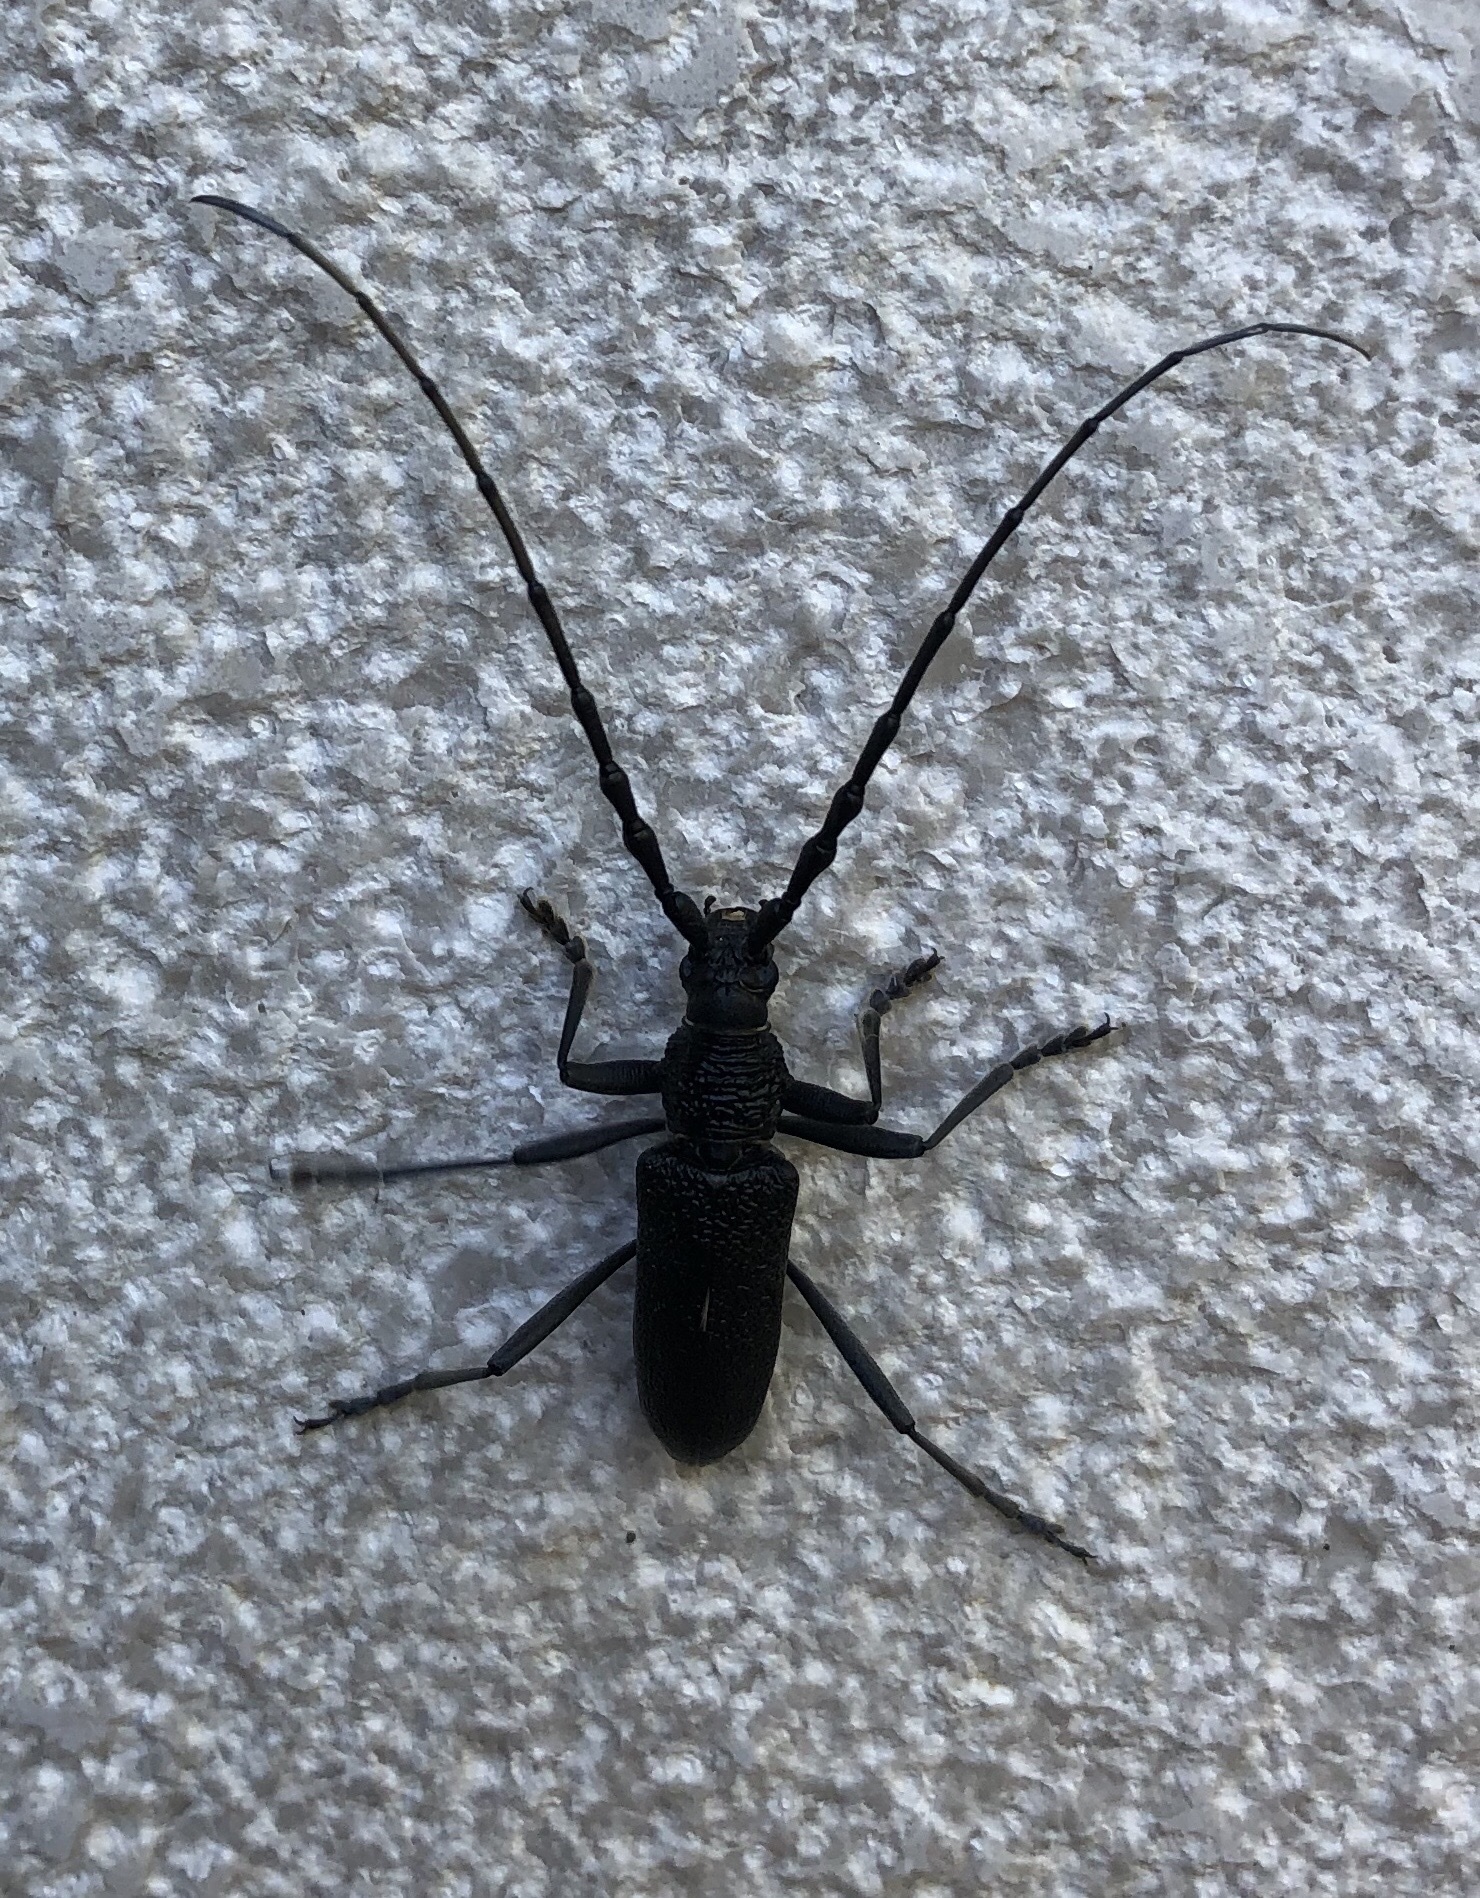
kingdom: Animalia
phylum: Arthropoda
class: Insecta
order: Coleoptera
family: Cerambycidae
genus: Cerambyx
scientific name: Cerambyx scopolii
